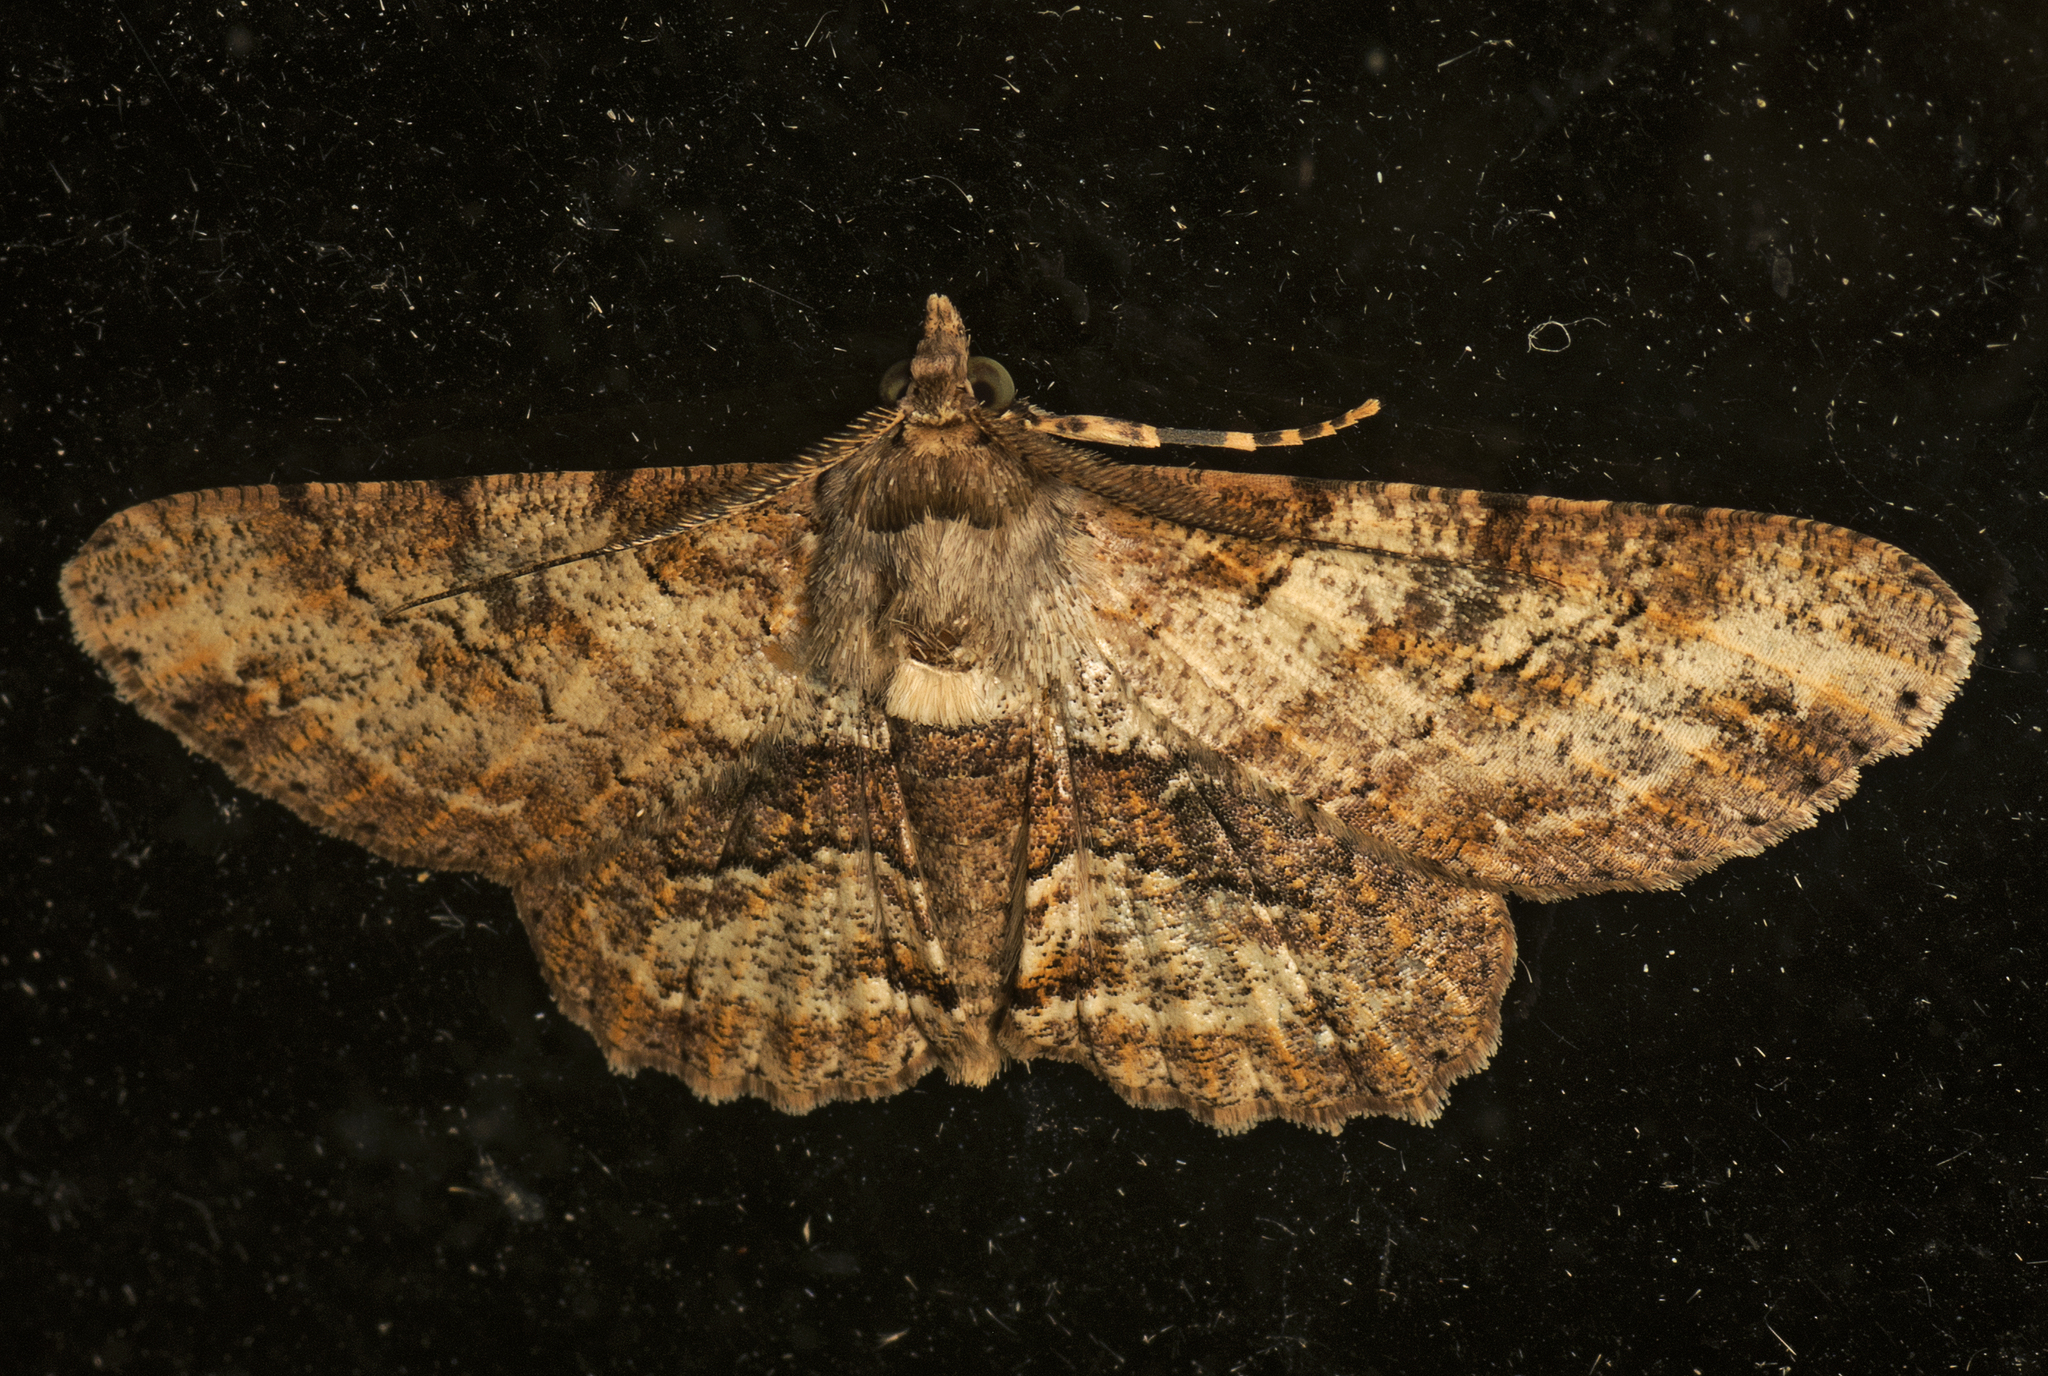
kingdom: Animalia
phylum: Arthropoda
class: Insecta
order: Lepidoptera
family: Geometridae
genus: Cleora
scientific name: Cleora repetita
